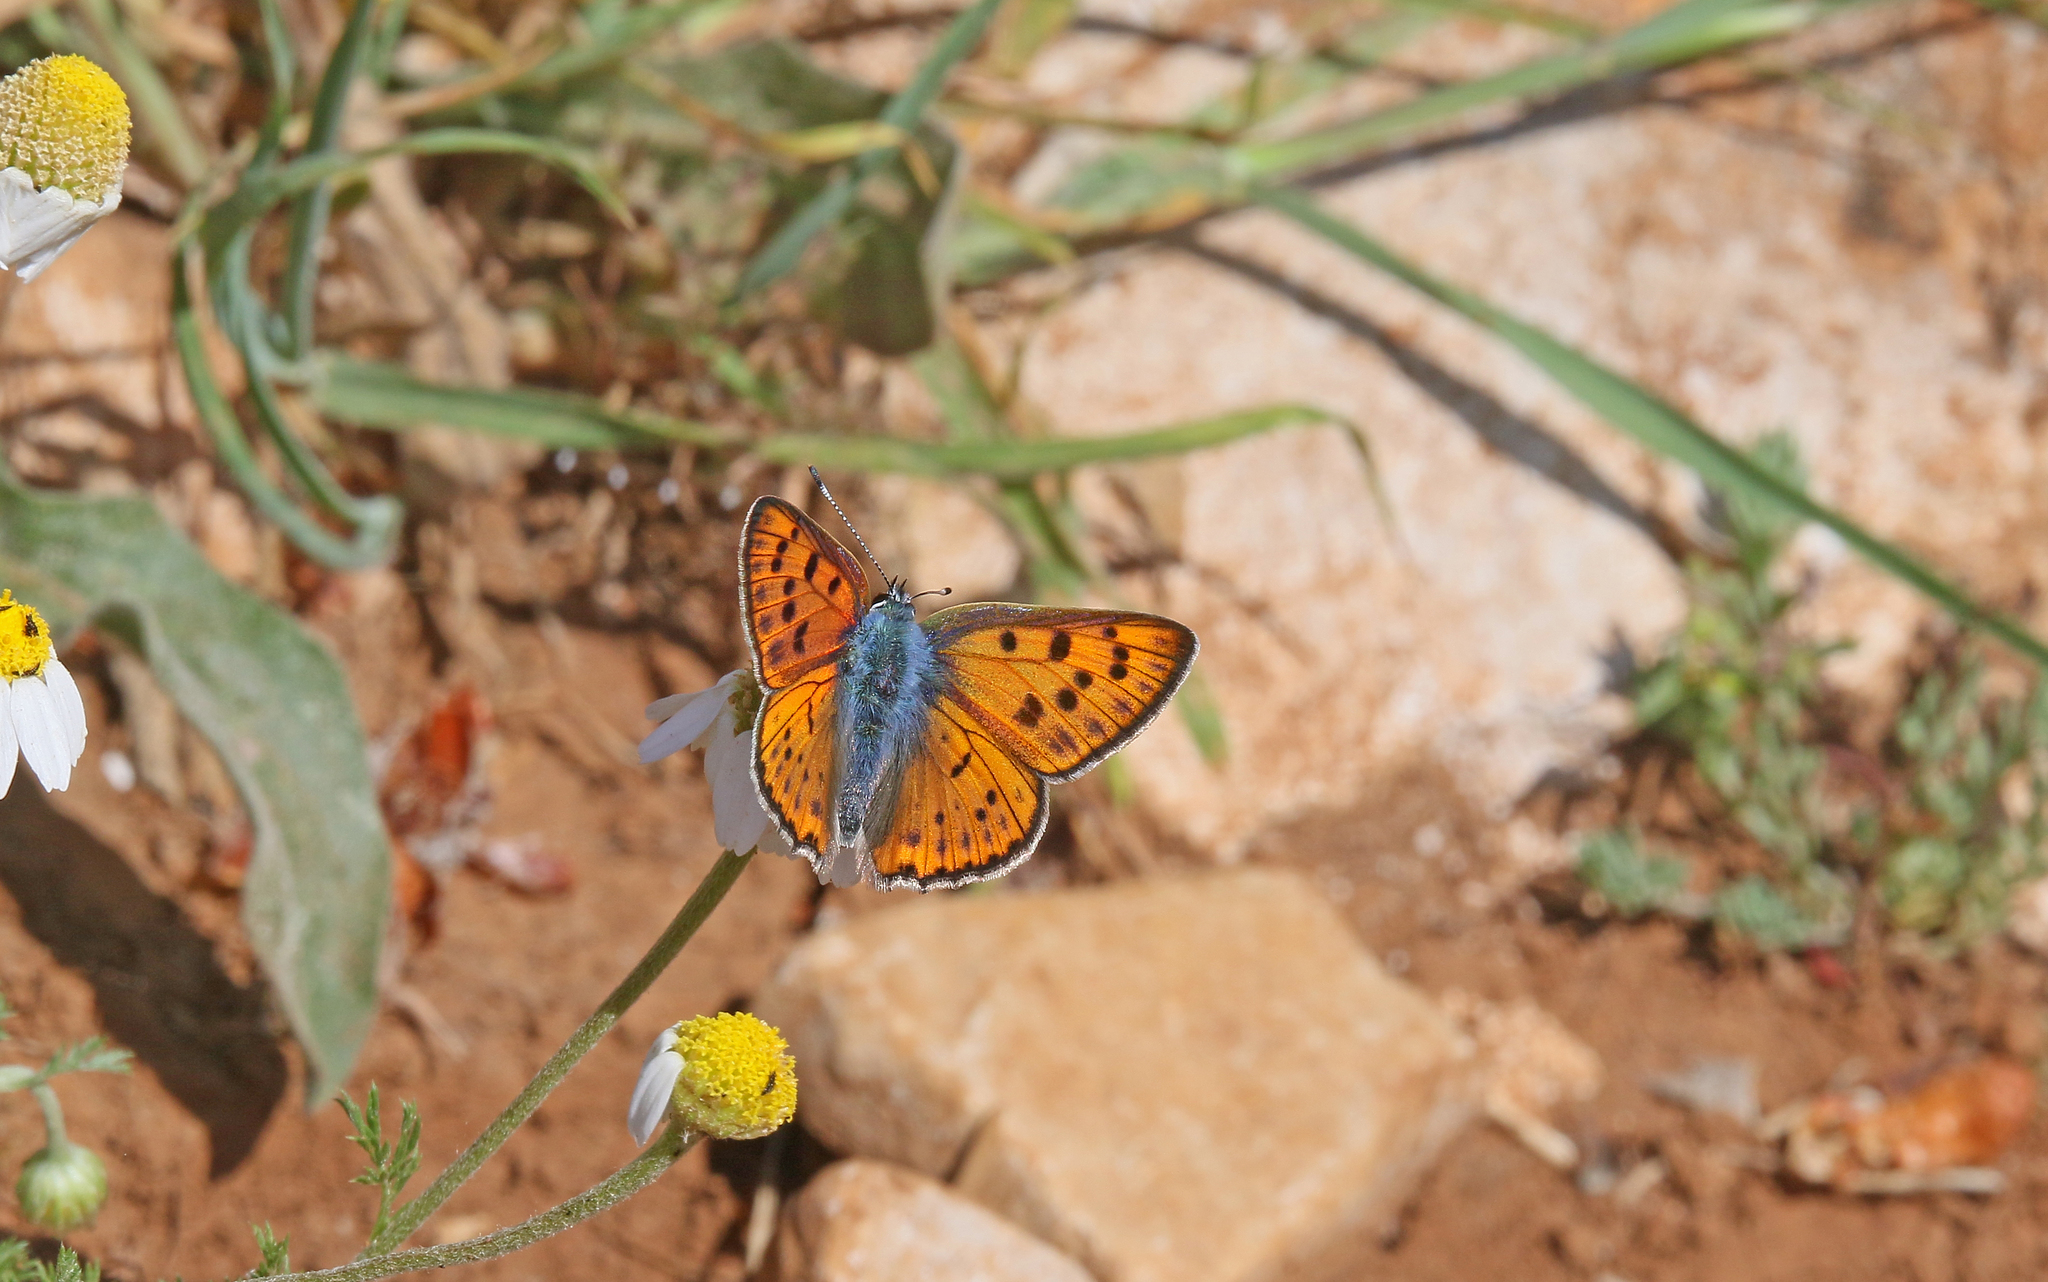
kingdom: Animalia
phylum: Arthropoda
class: Insecta
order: Lepidoptera
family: Lycaenidae
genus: Lycaena
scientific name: Lycaena alciphron
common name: Purple-shot copper
